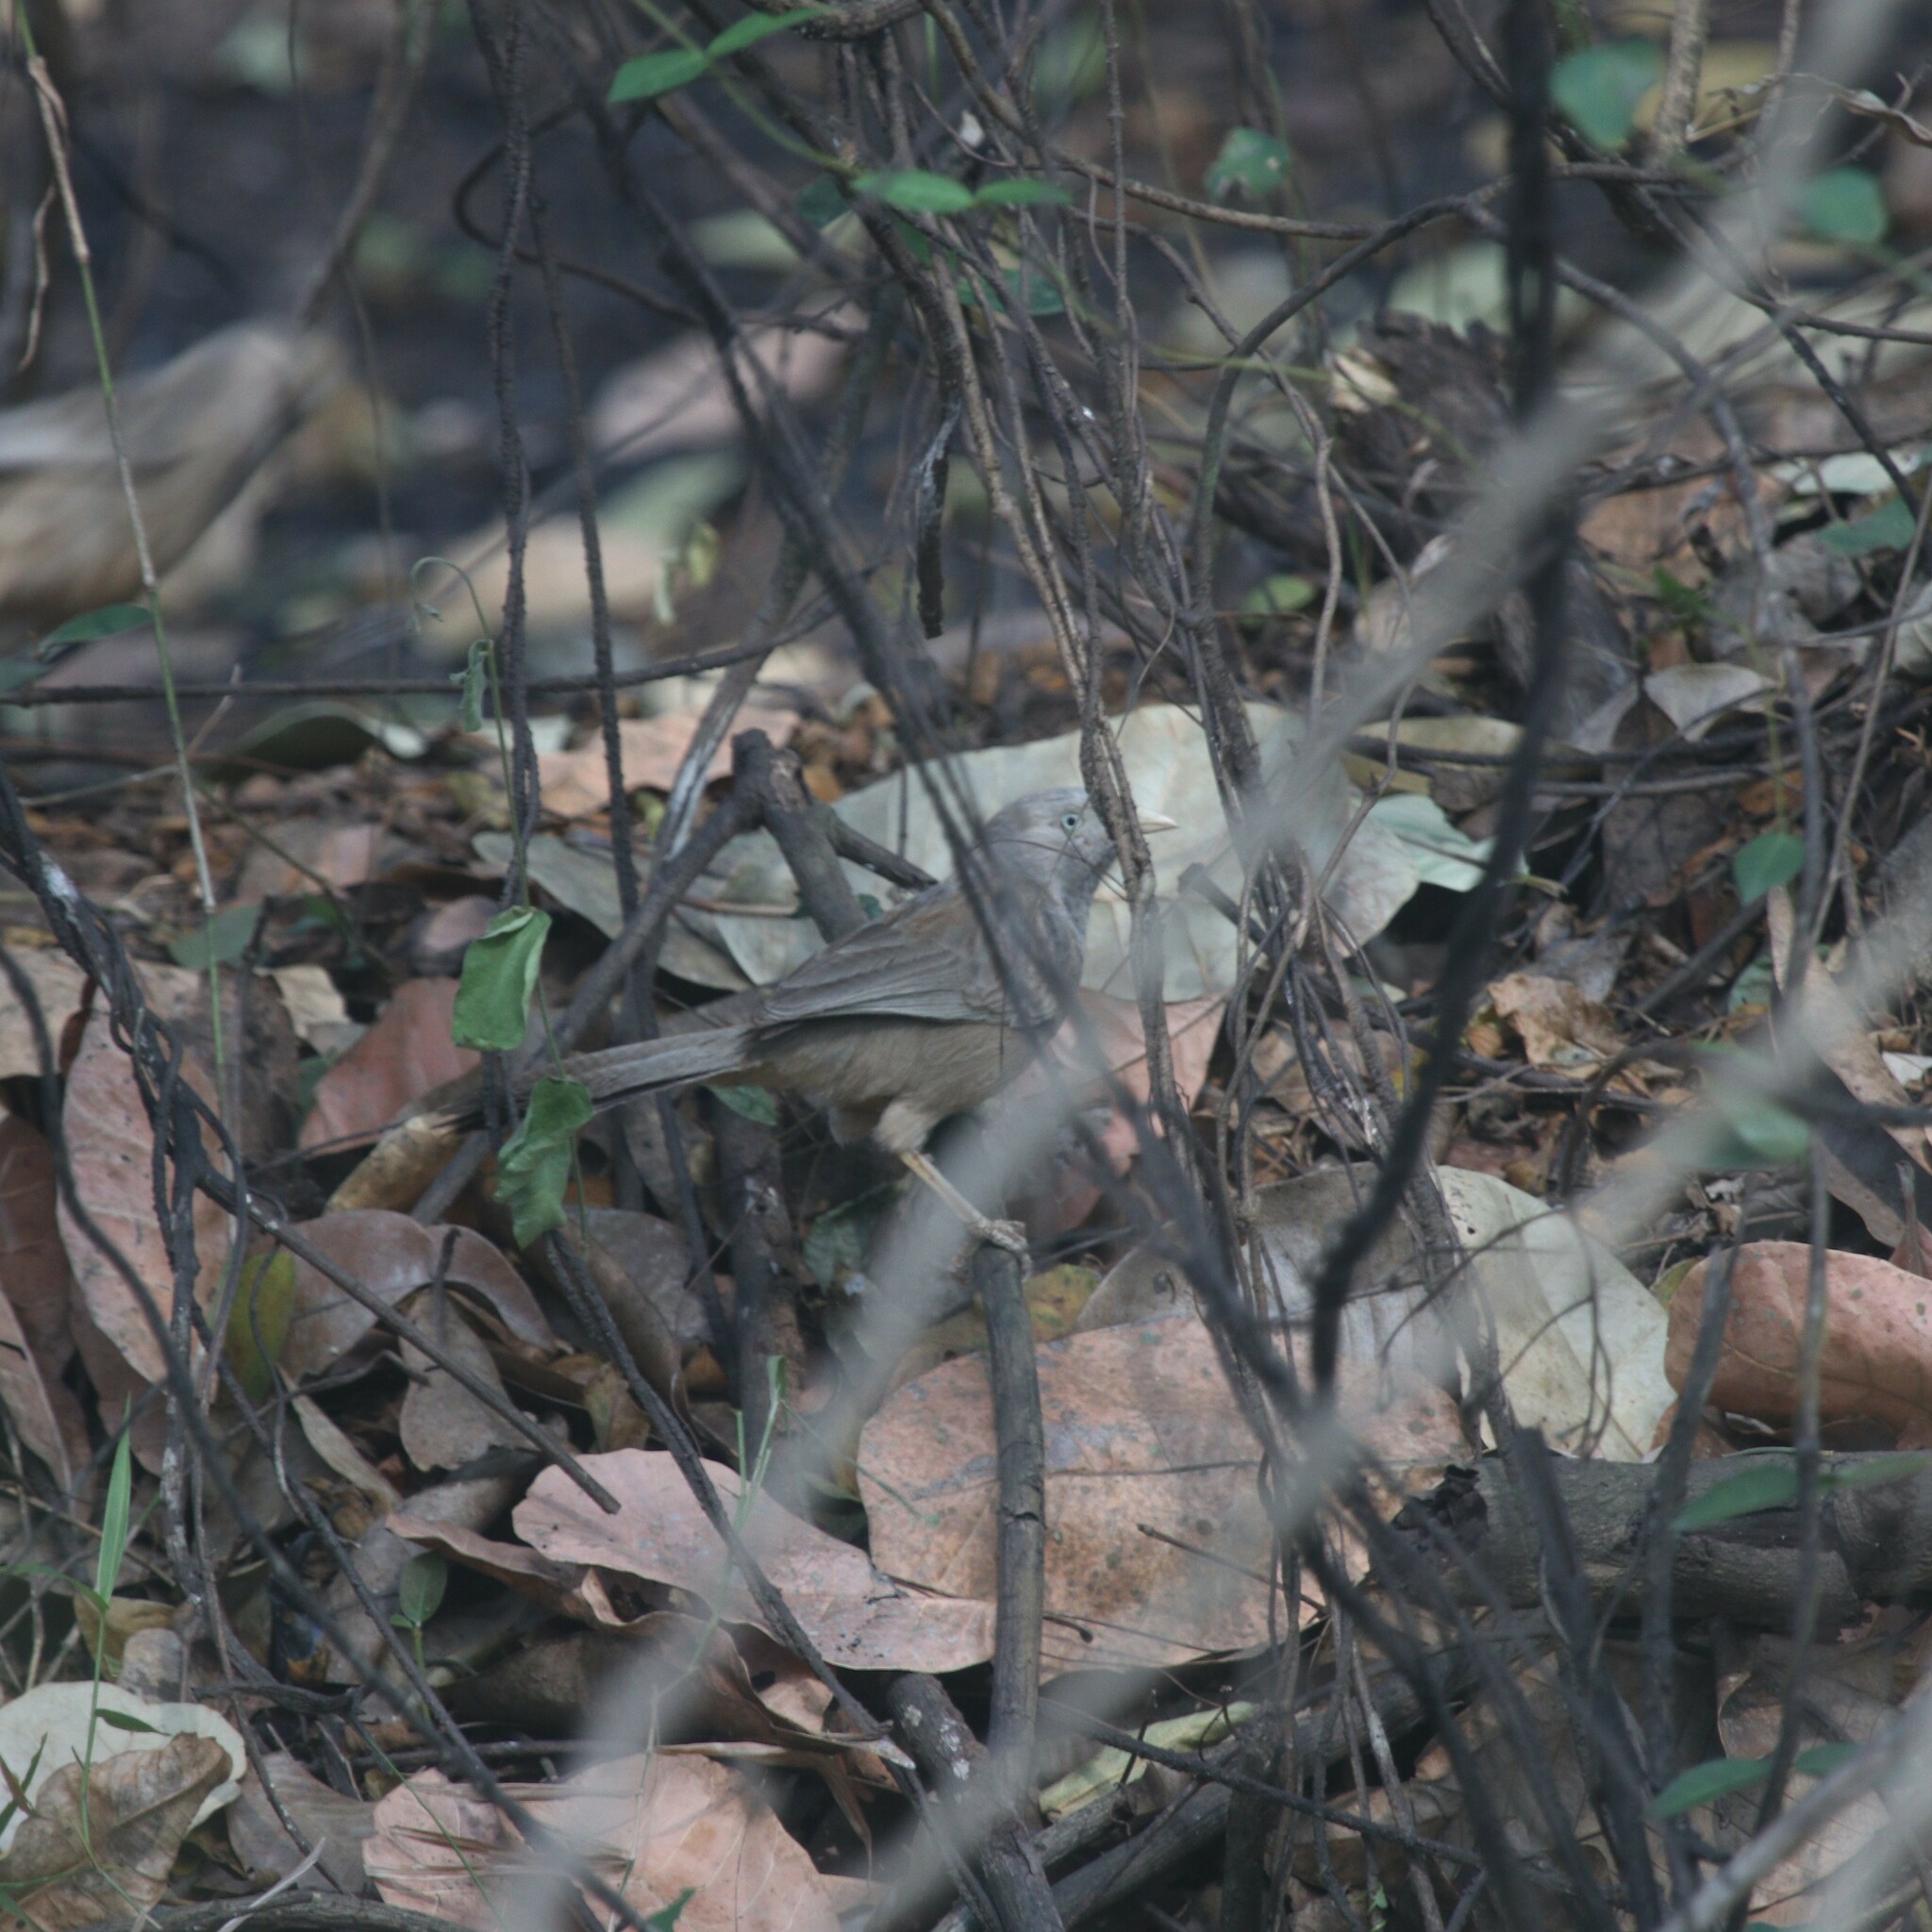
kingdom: Animalia
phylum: Chordata
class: Aves
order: Passeriformes
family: Leiothrichidae
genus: Turdoides
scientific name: Turdoides affinis
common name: Yellow-billed babbler
